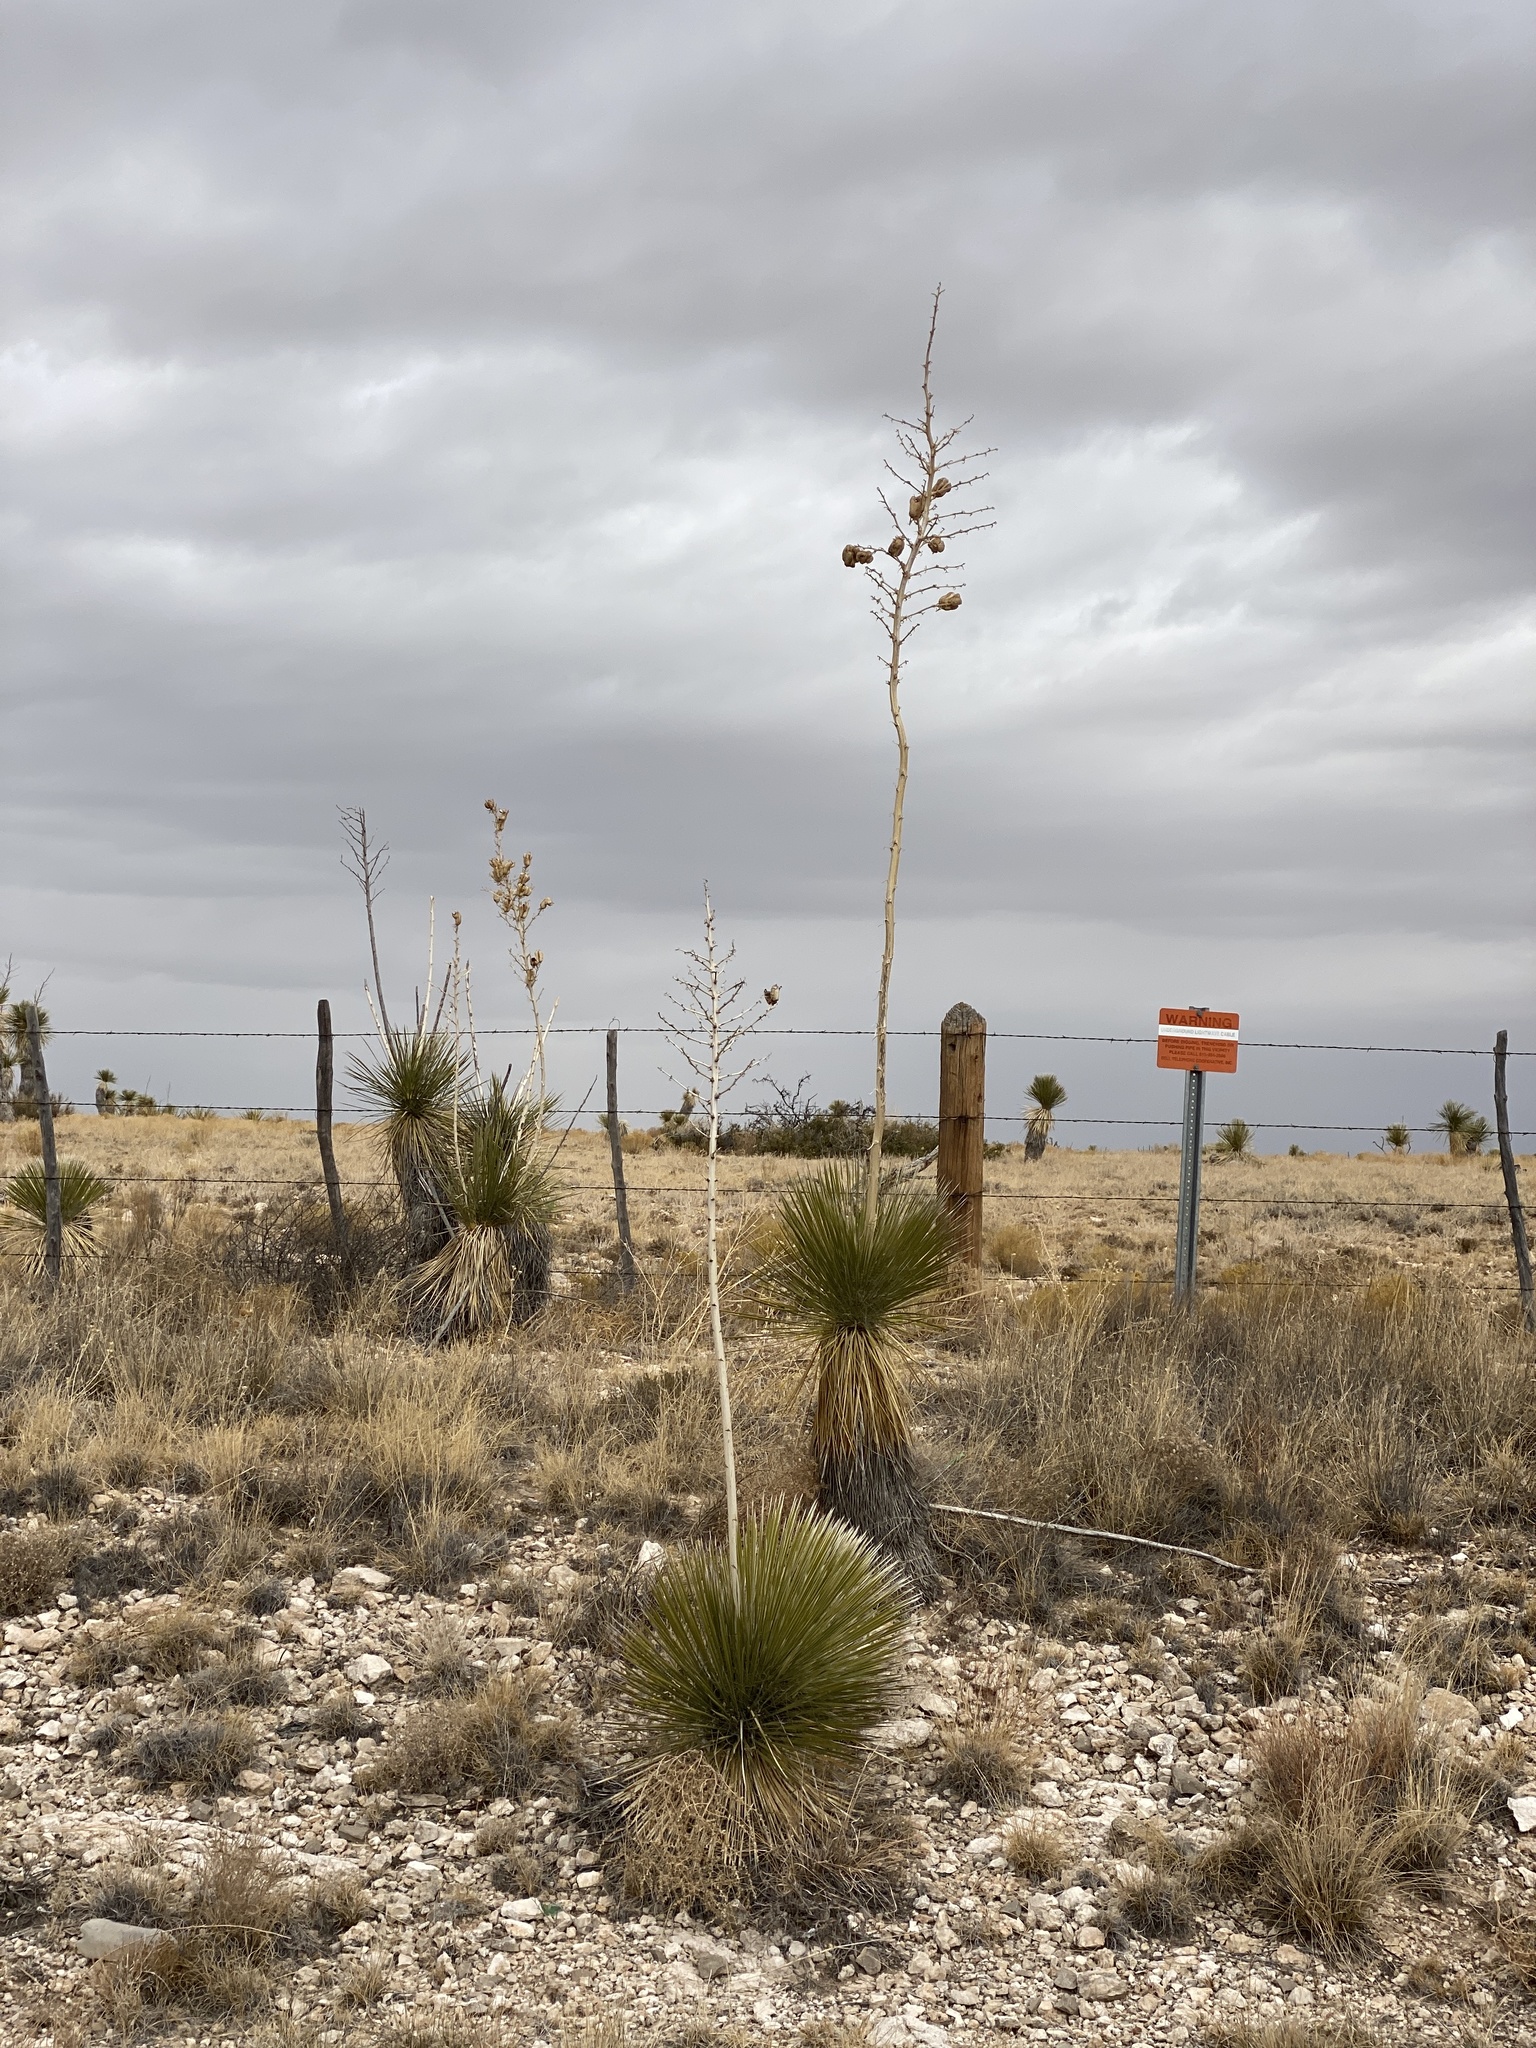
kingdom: Plantae
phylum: Tracheophyta
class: Liliopsida
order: Asparagales
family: Asparagaceae
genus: Yucca
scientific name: Yucca elata
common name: Palmella
